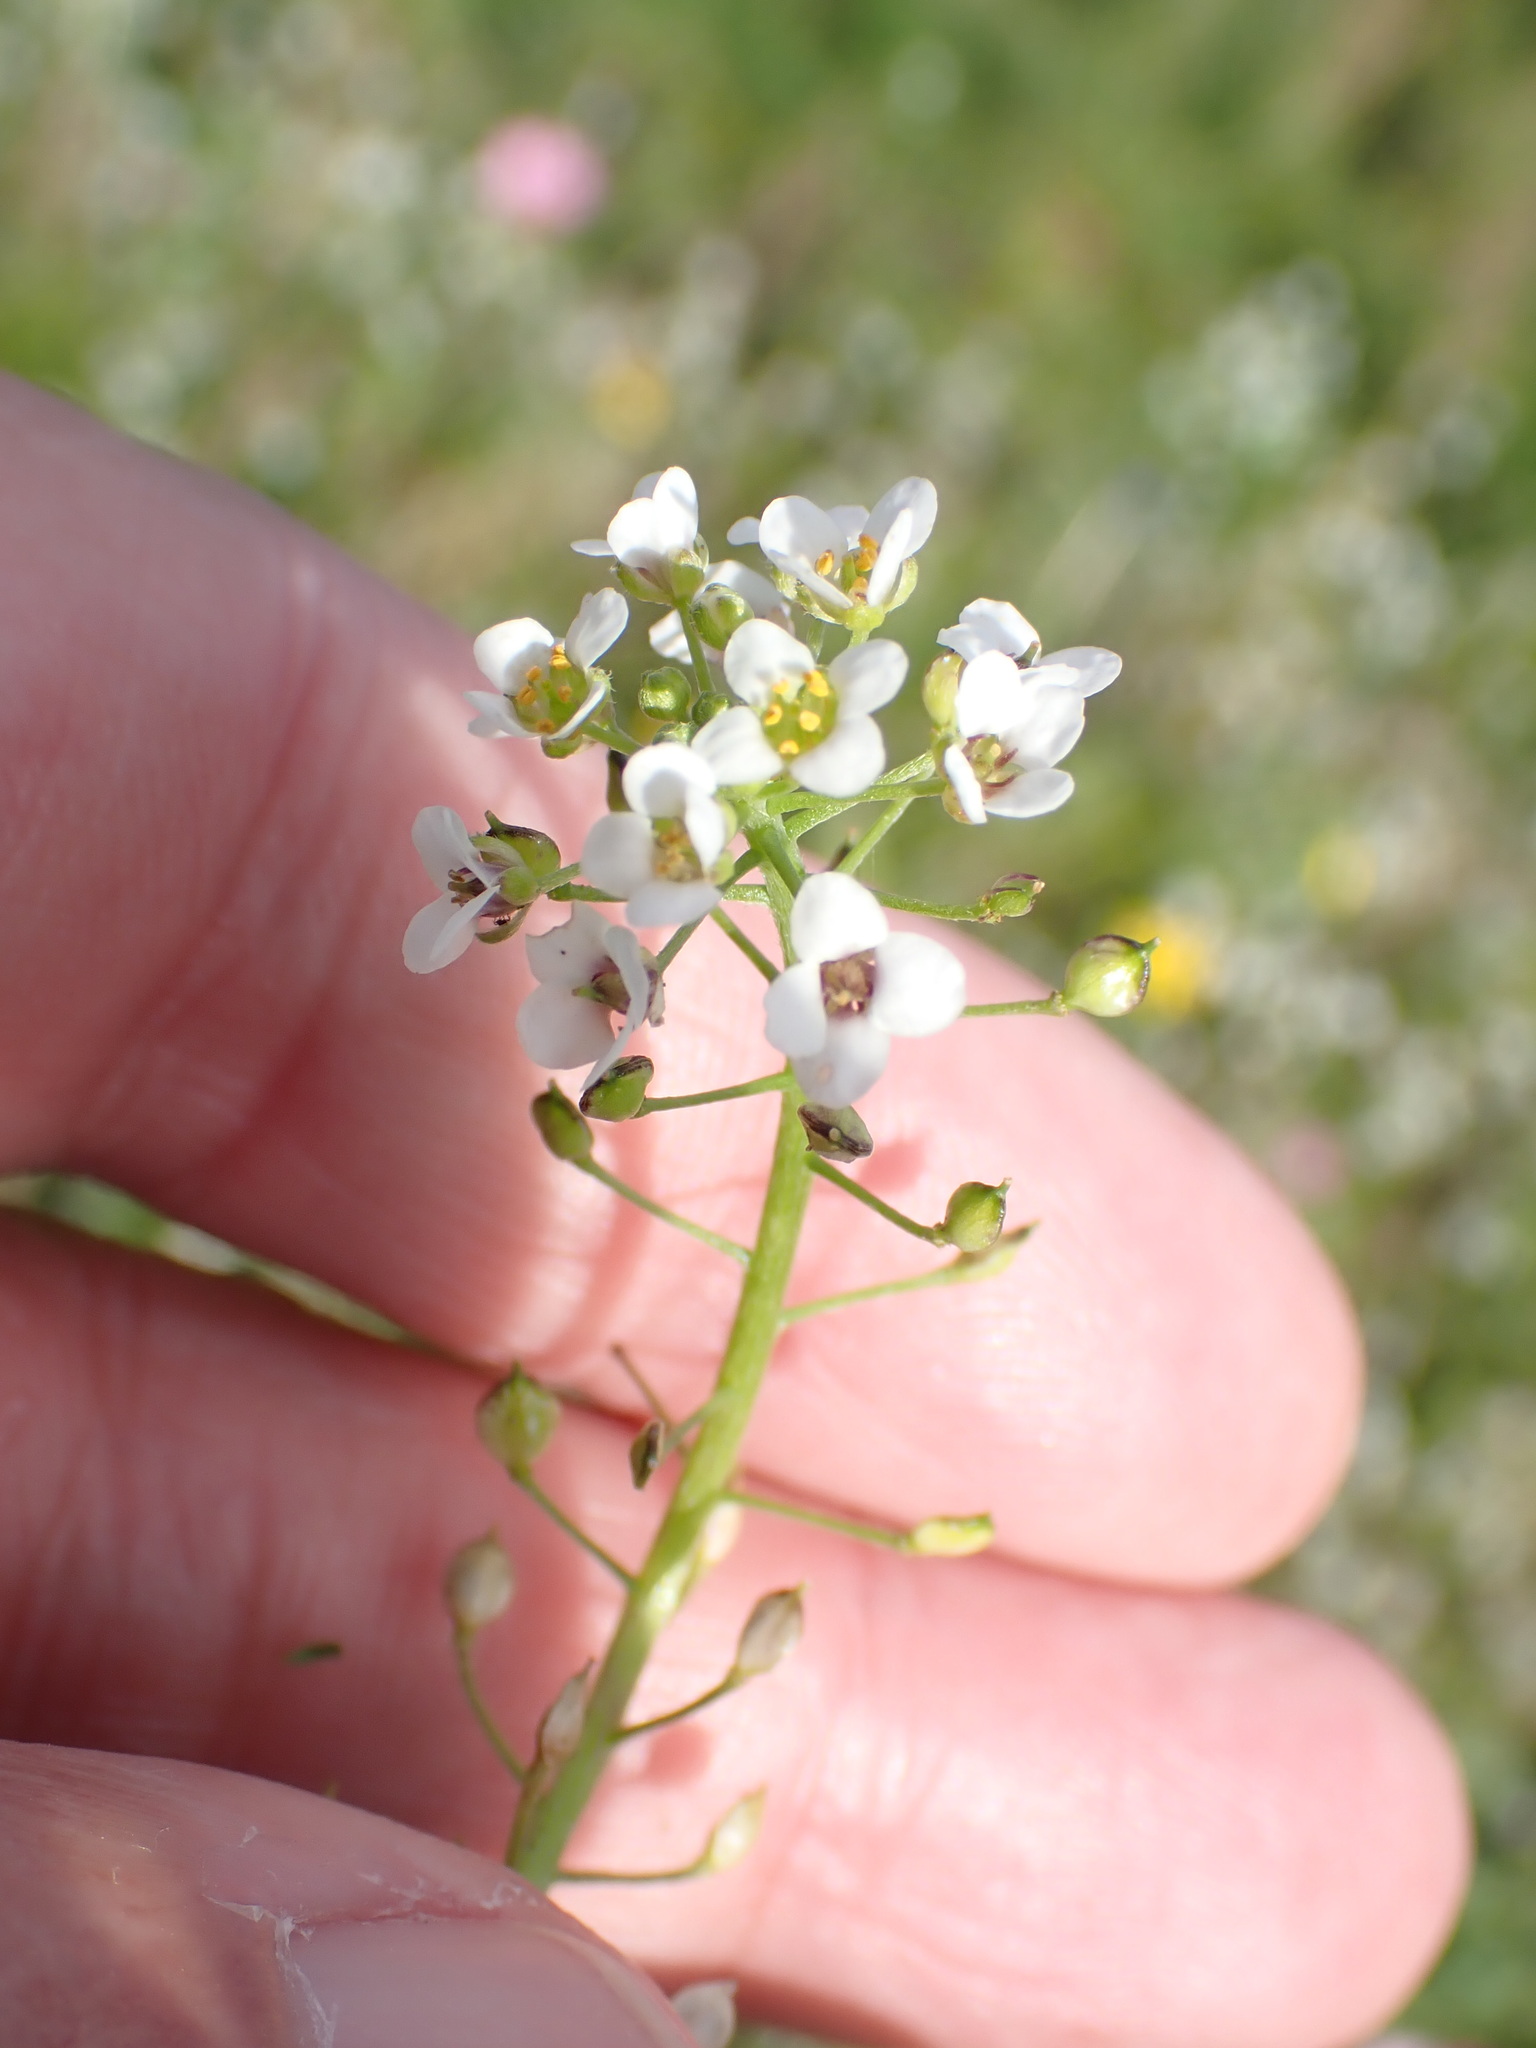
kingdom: Plantae
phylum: Tracheophyta
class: Magnoliopsida
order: Brassicales
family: Brassicaceae
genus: Lobularia
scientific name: Lobularia maritima
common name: Sweet alison
